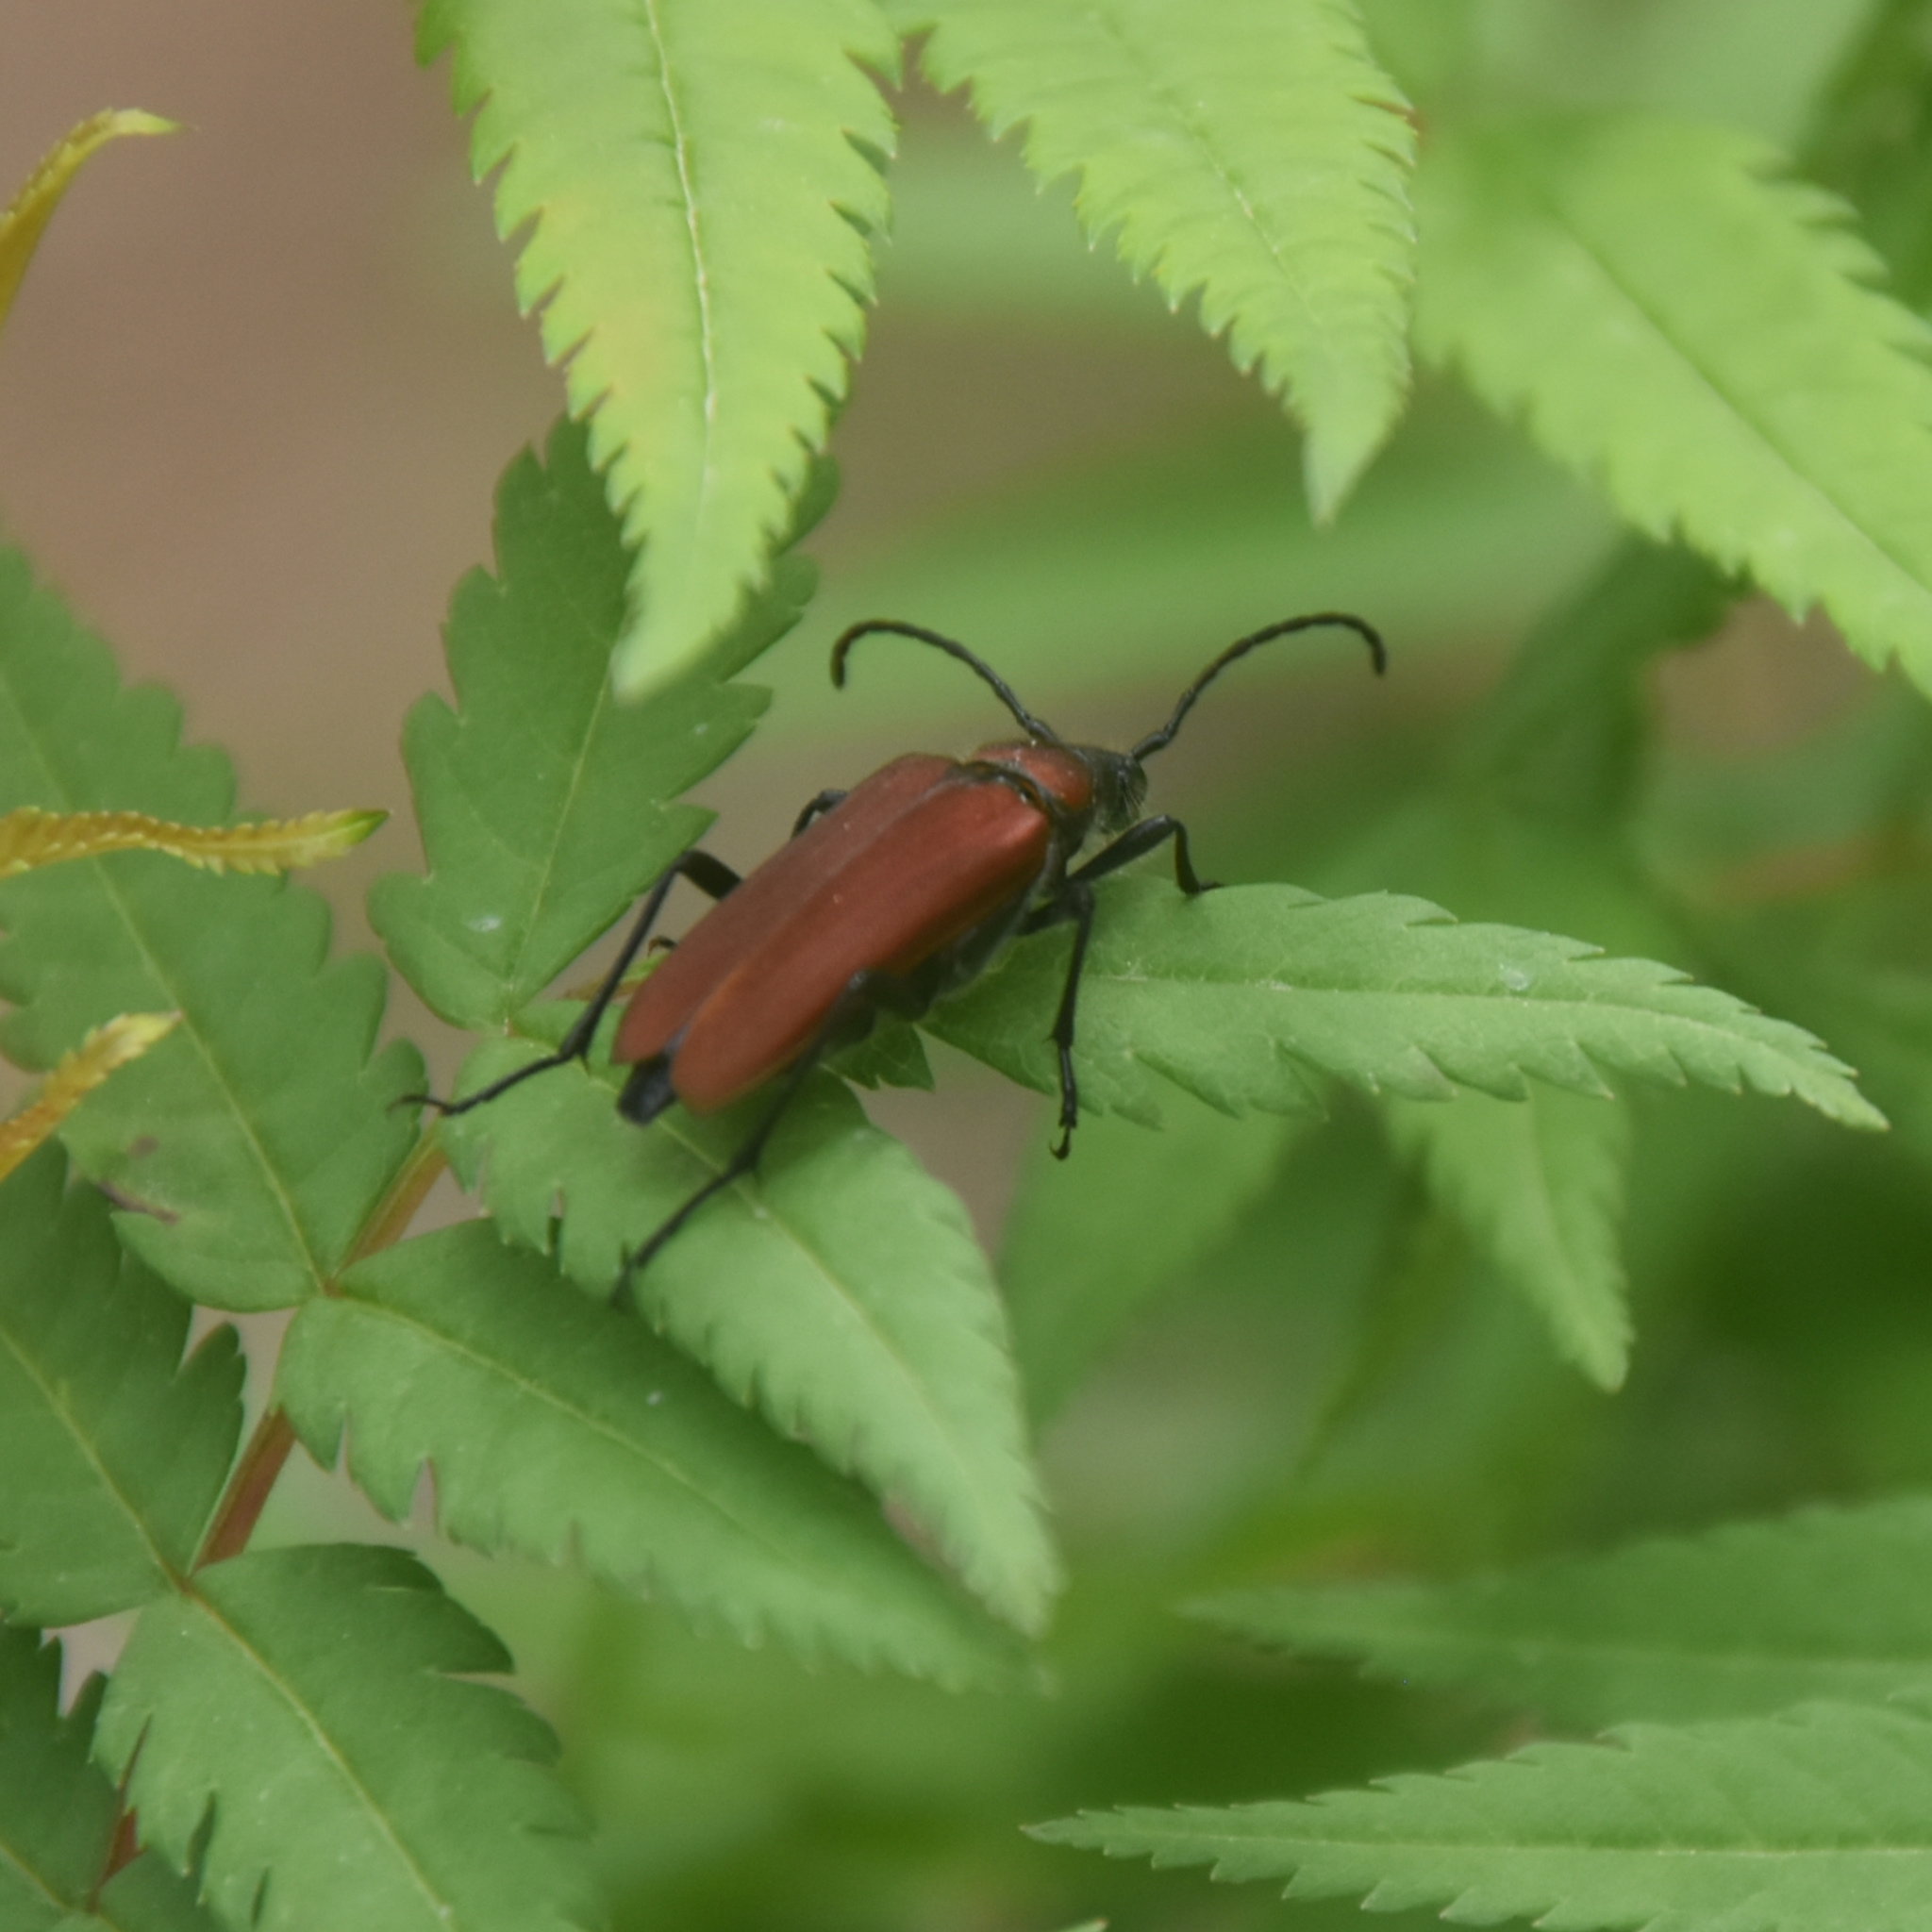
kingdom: Animalia
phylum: Arthropoda
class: Insecta
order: Coleoptera
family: Cerambycidae
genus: Anastrangalia
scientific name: Anastrangalia rubriola
